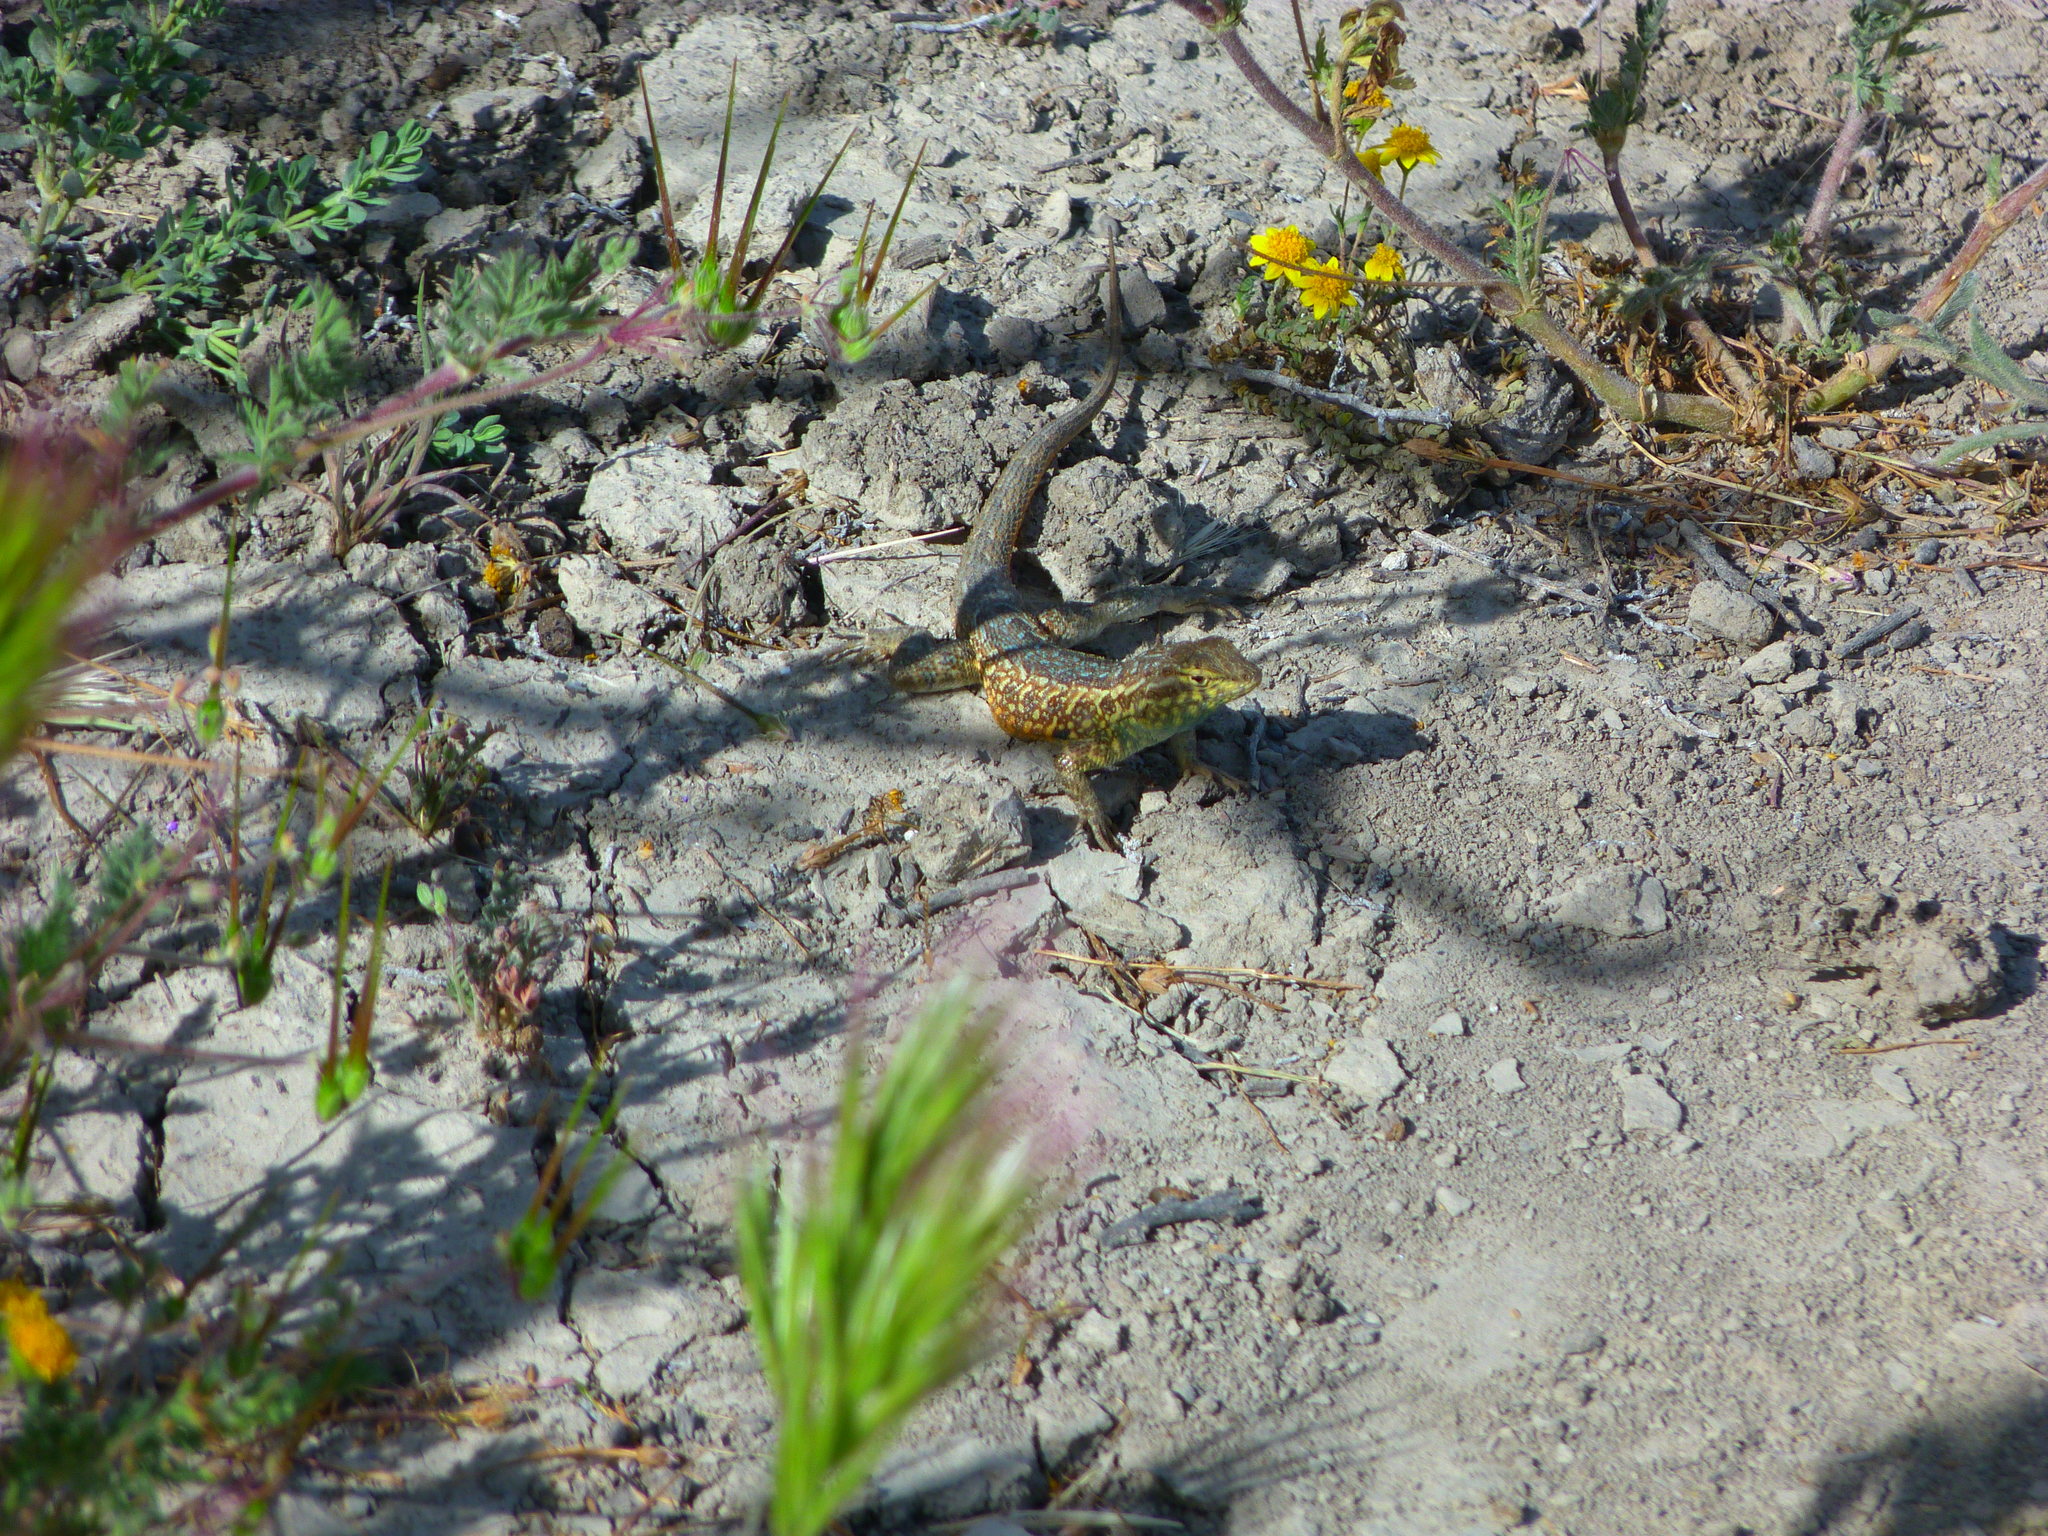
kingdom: Animalia
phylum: Chordata
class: Squamata
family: Phrynosomatidae
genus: Uta
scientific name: Uta stansburiana
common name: Side-blotched lizard
